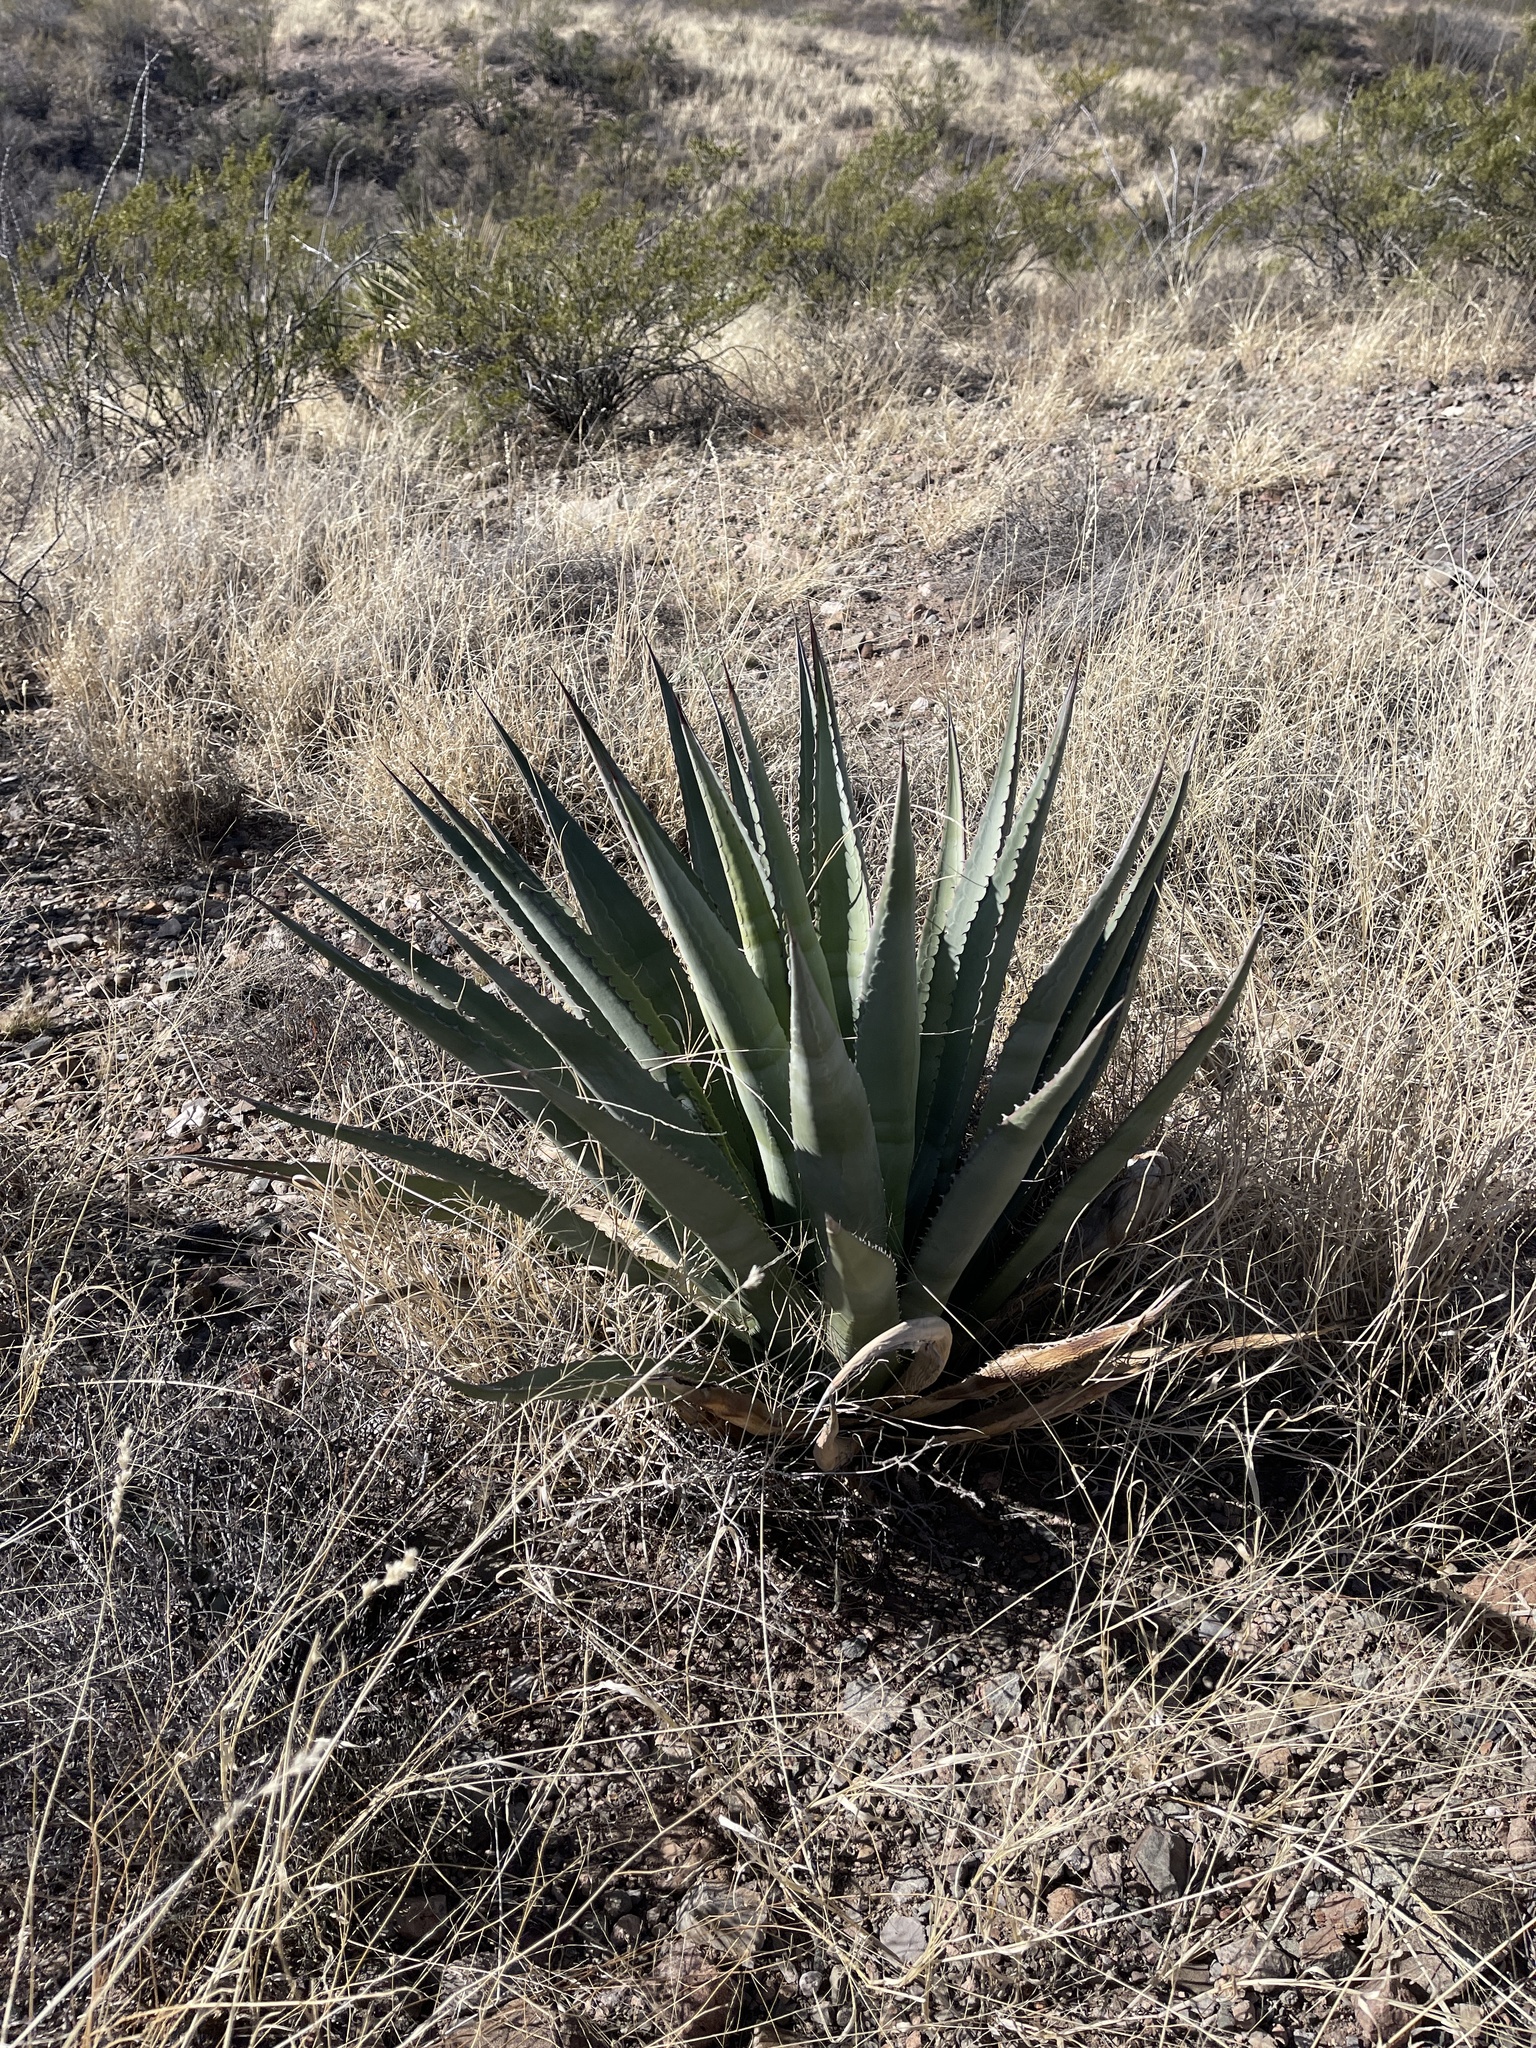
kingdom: Plantae
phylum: Tracheophyta
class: Liliopsida
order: Asparagales
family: Asparagaceae
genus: Agave
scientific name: Agave palmeri
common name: Palmer agave
